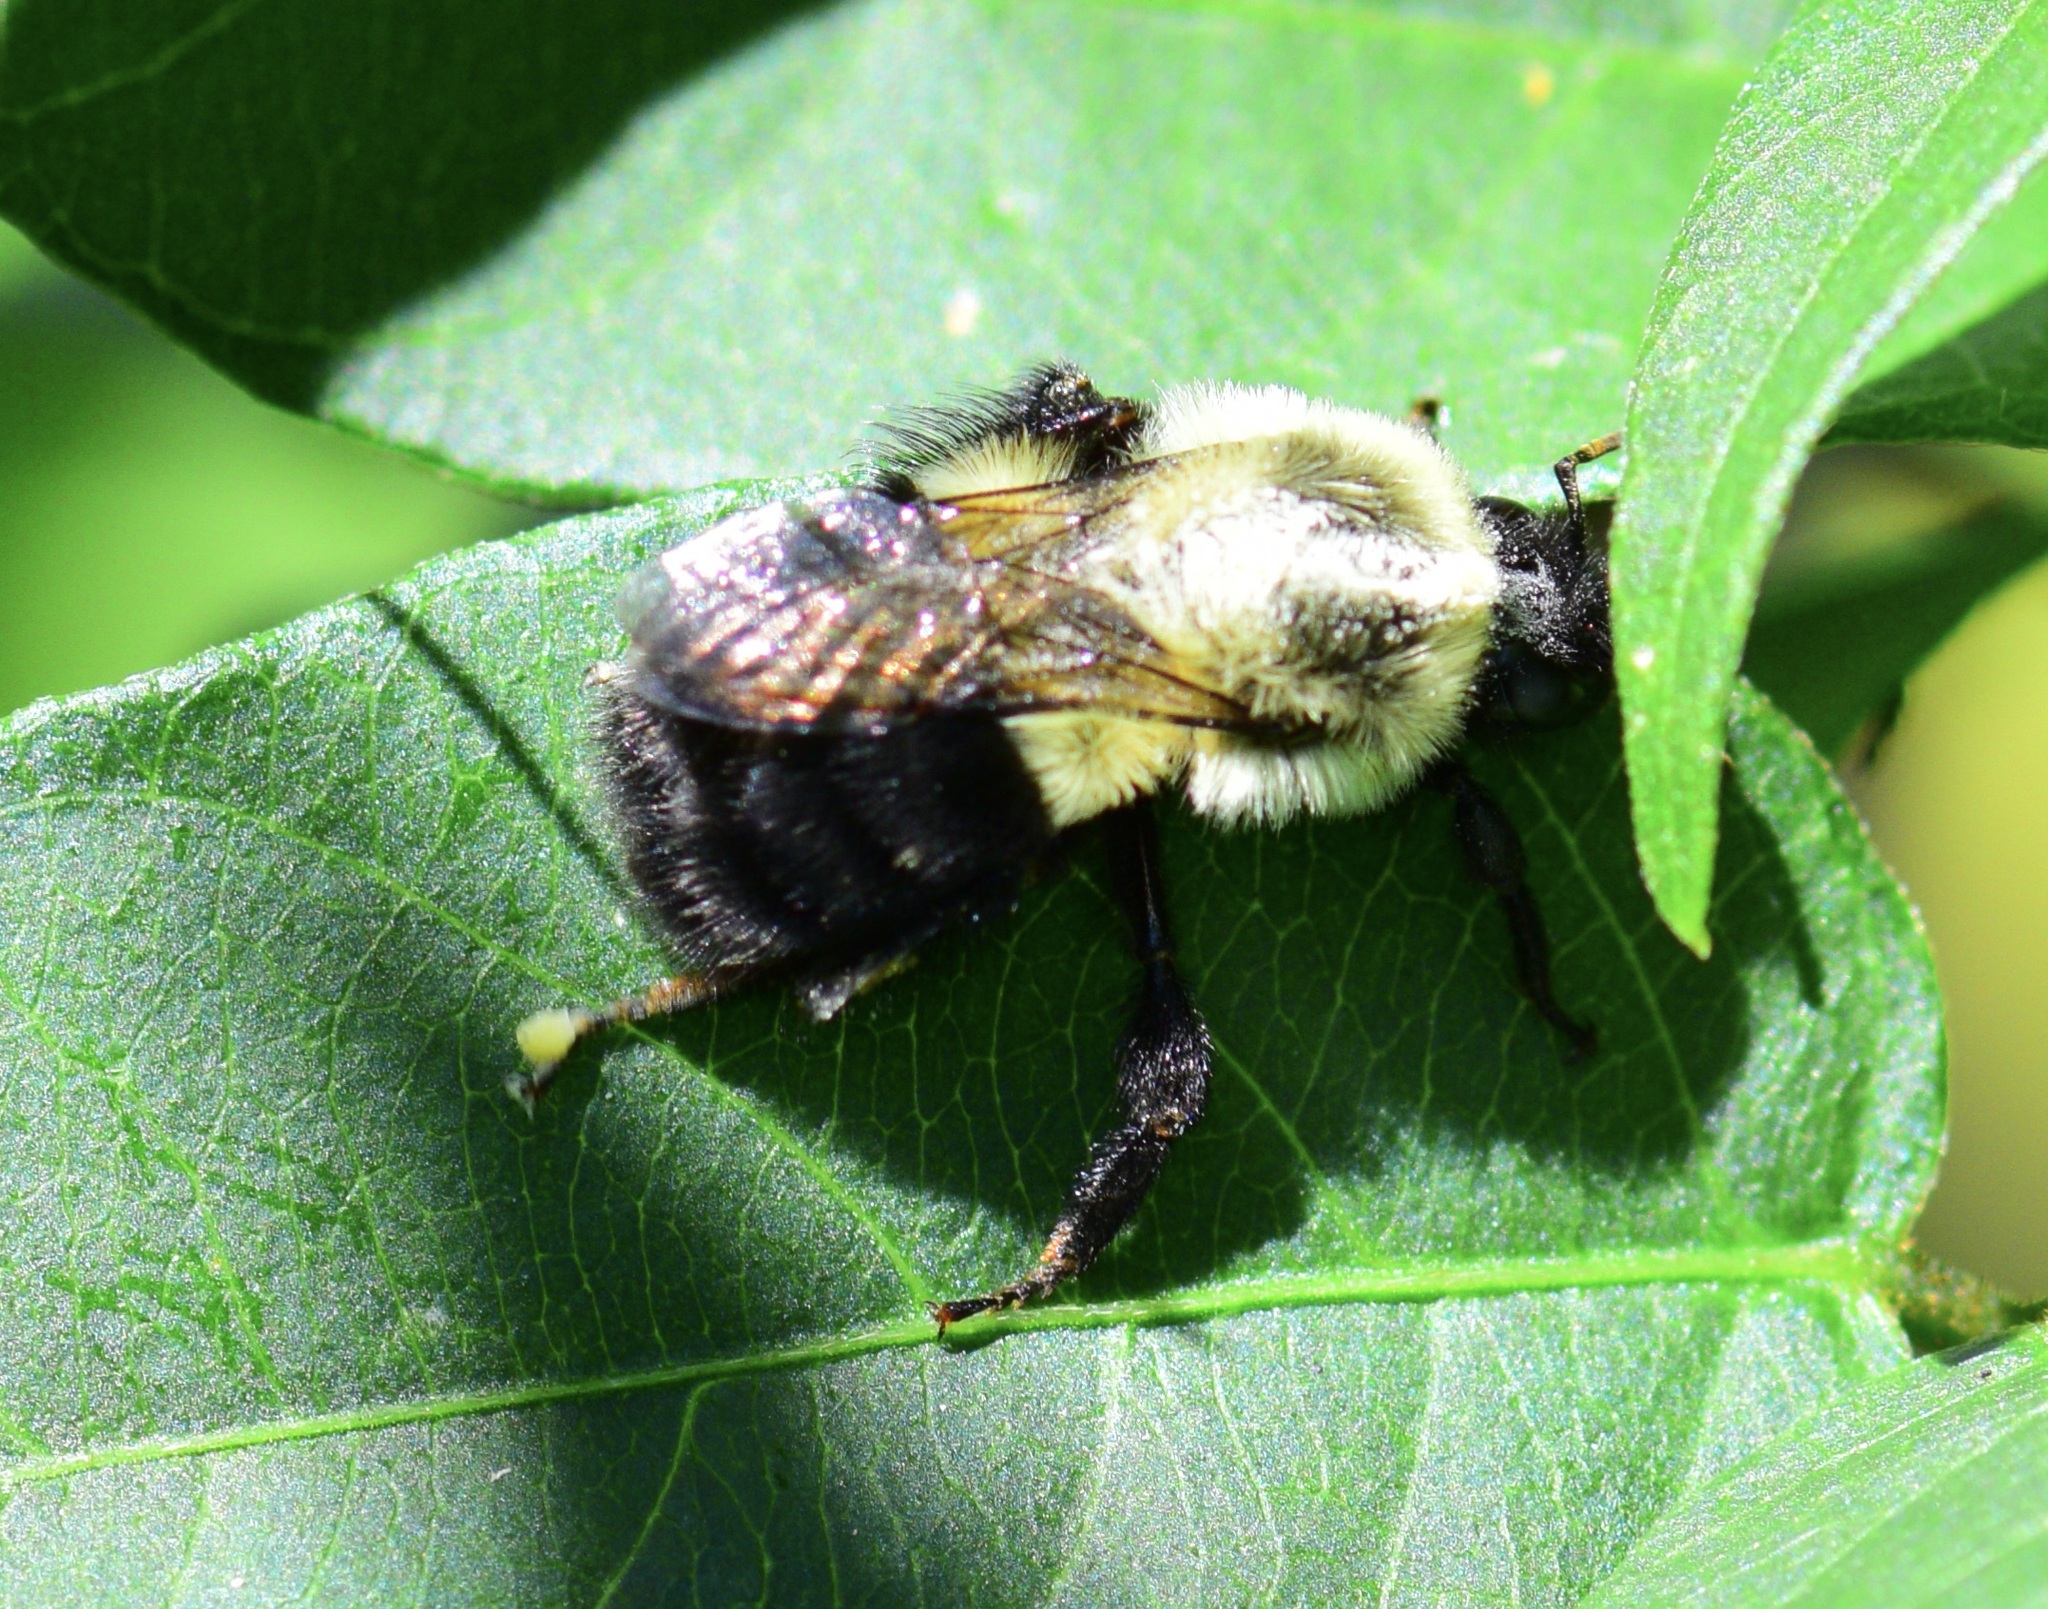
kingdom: Animalia
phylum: Arthropoda
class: Insecta
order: Hymenoptera
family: Apidae
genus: Bombus
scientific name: Bombus impatiens
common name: Common eastern bumble bee
